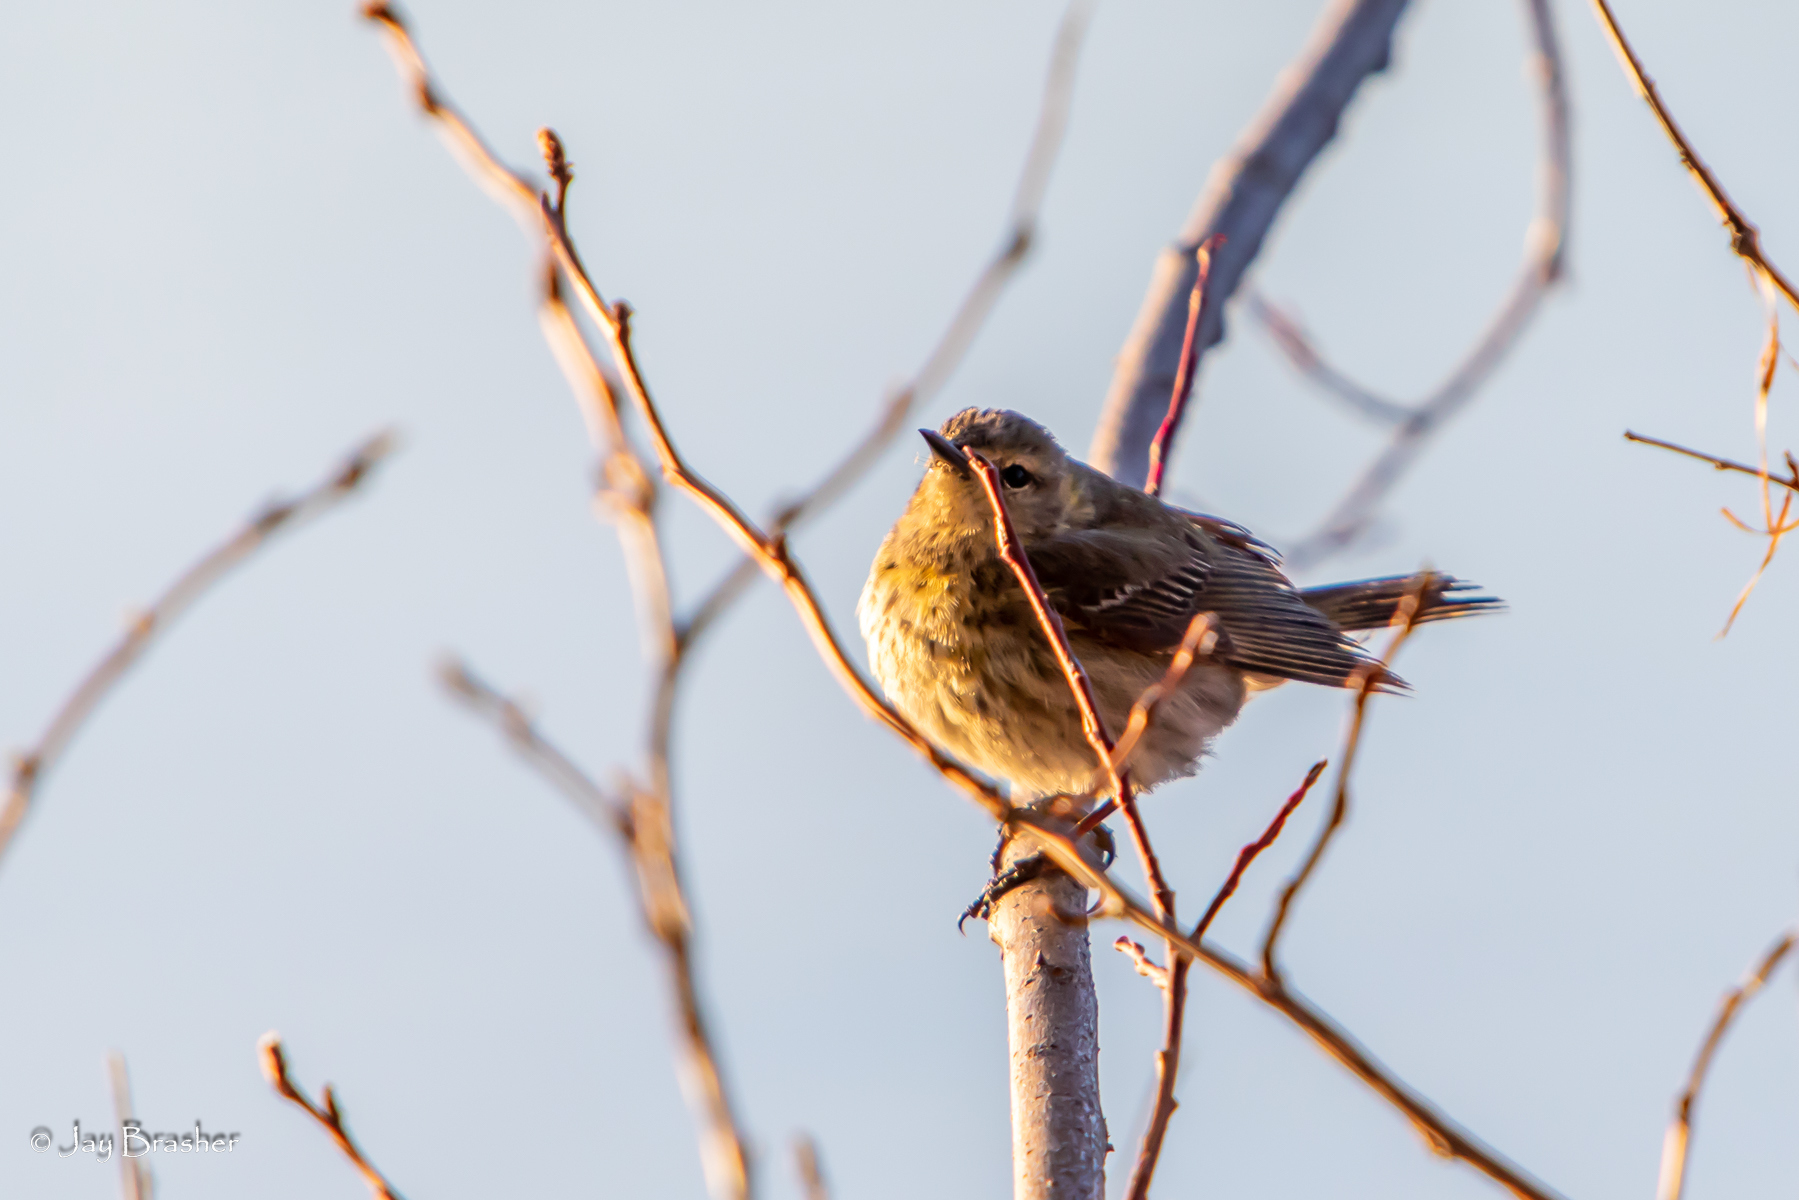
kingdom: Animalia
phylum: Chordata
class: Aves
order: Passeriformes
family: Parulidae
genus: Setophaga
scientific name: Setophaga tigrina
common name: Cape may warbler
